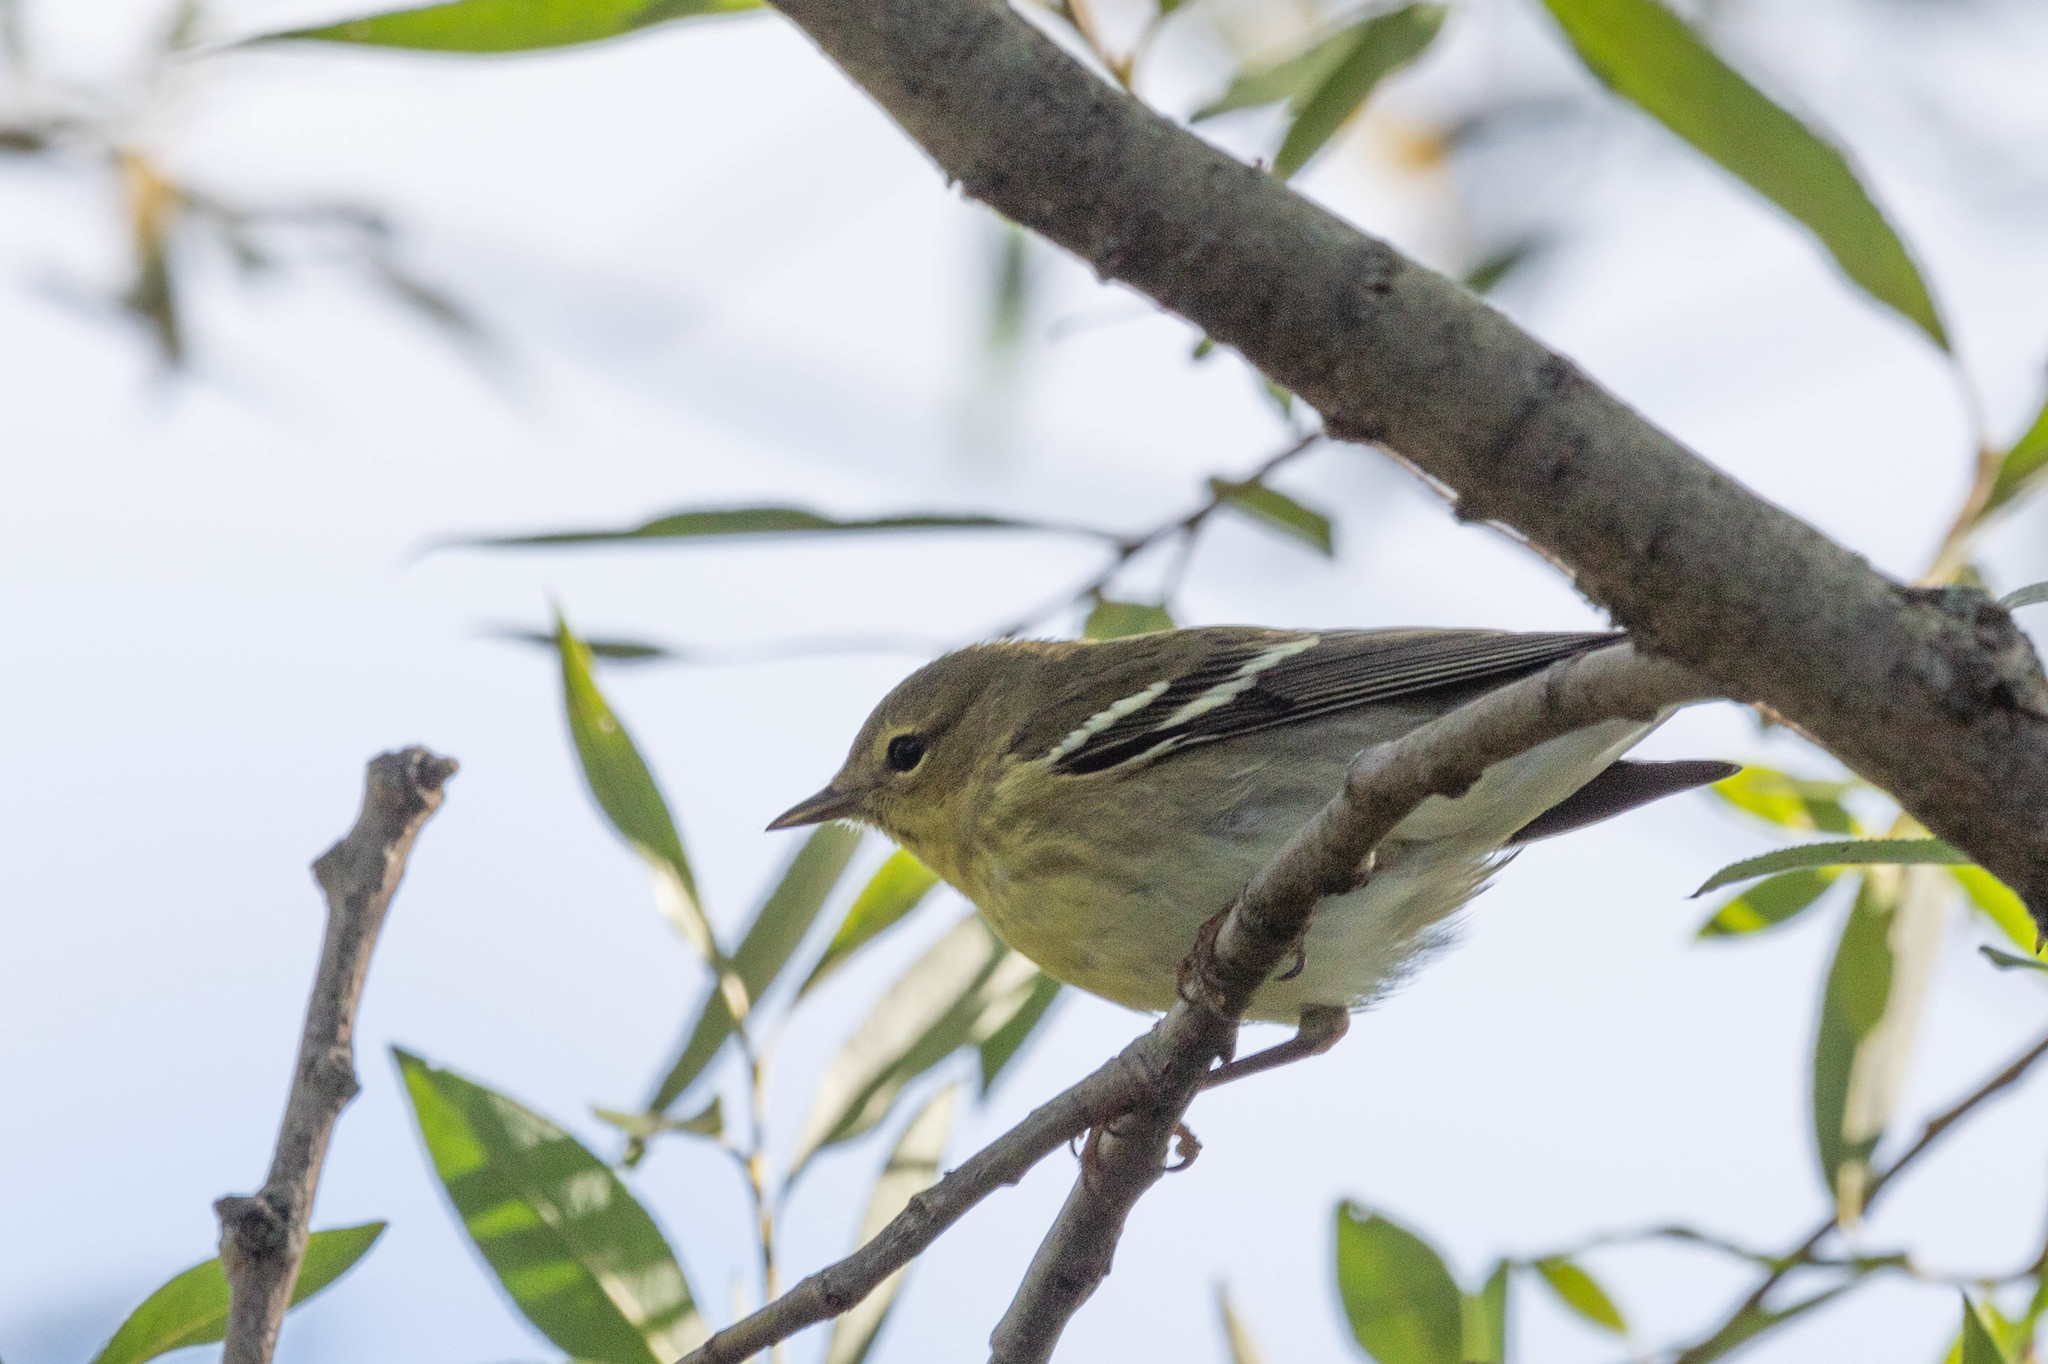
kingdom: Animalia
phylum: Chordata
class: Aves
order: Passeriformes
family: Parulidae
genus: Setophaga
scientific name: Setophaga striata
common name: Blackpoll warbler
